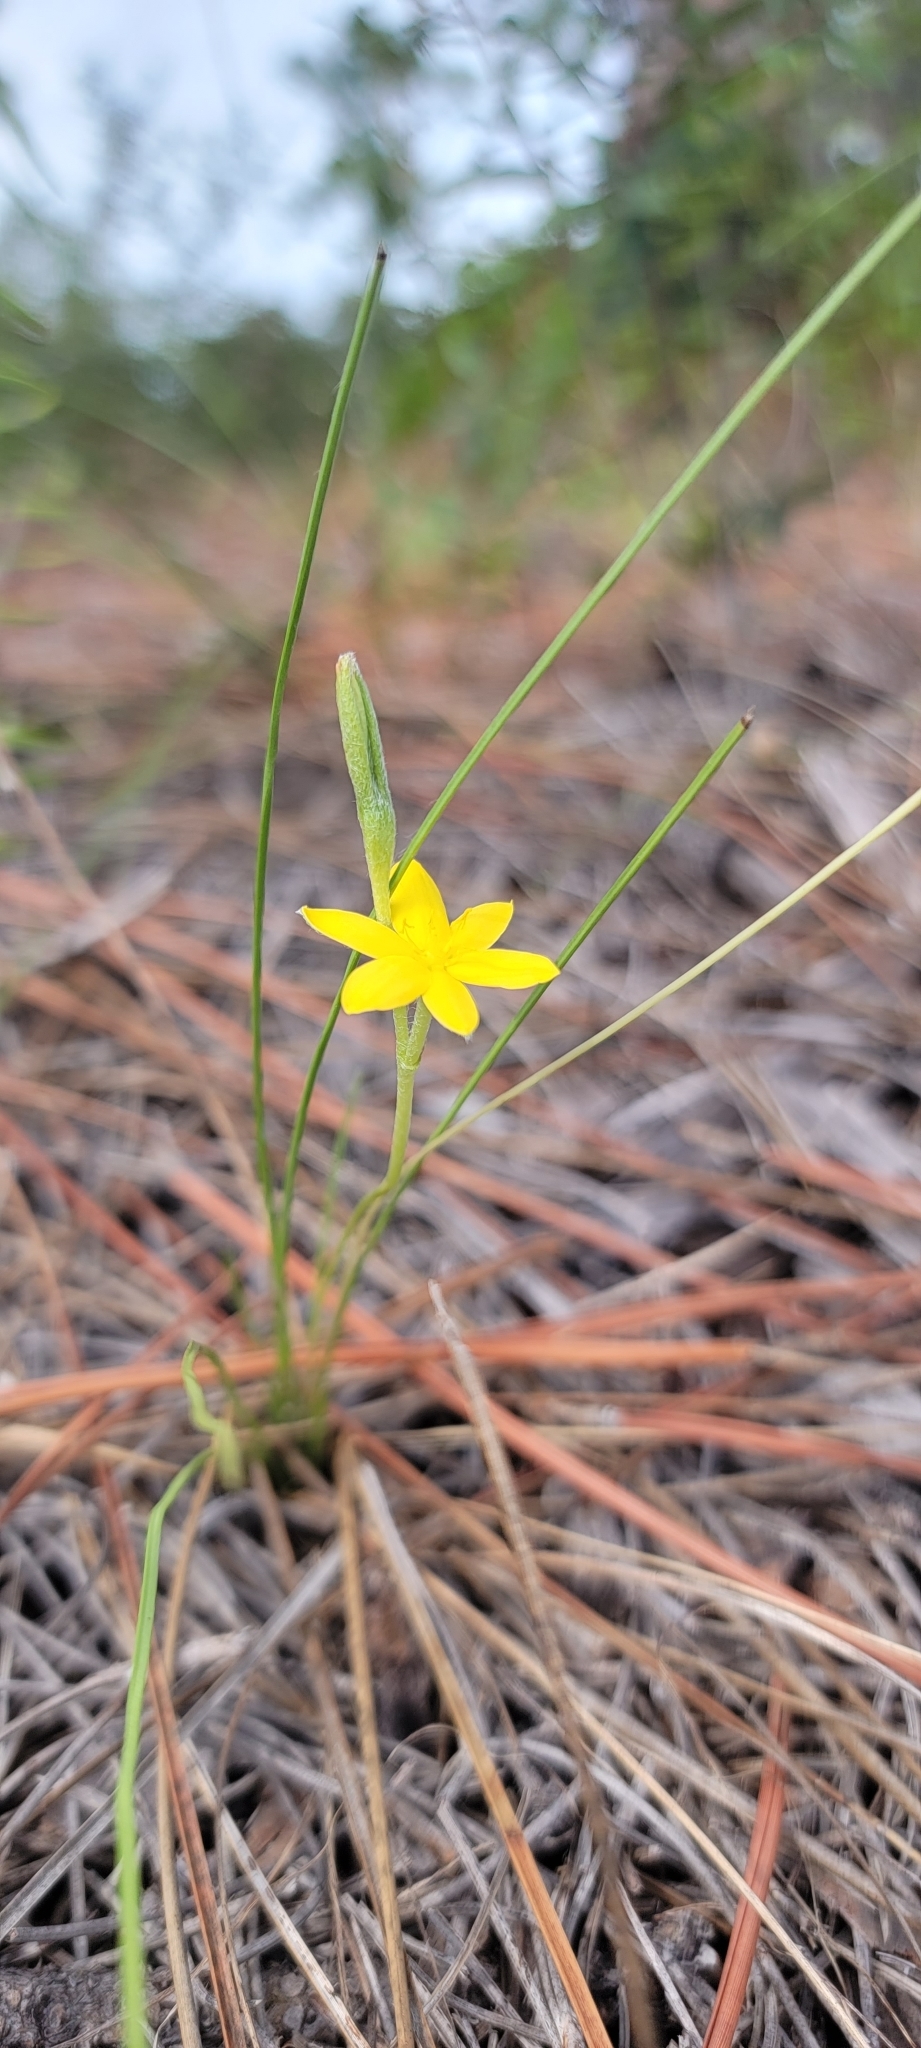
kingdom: Plantae
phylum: Tracheophyta
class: Liliopsida
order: Asparagales
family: Hypoxidaceae
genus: Hypoxis
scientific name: Hypoxis juncea
